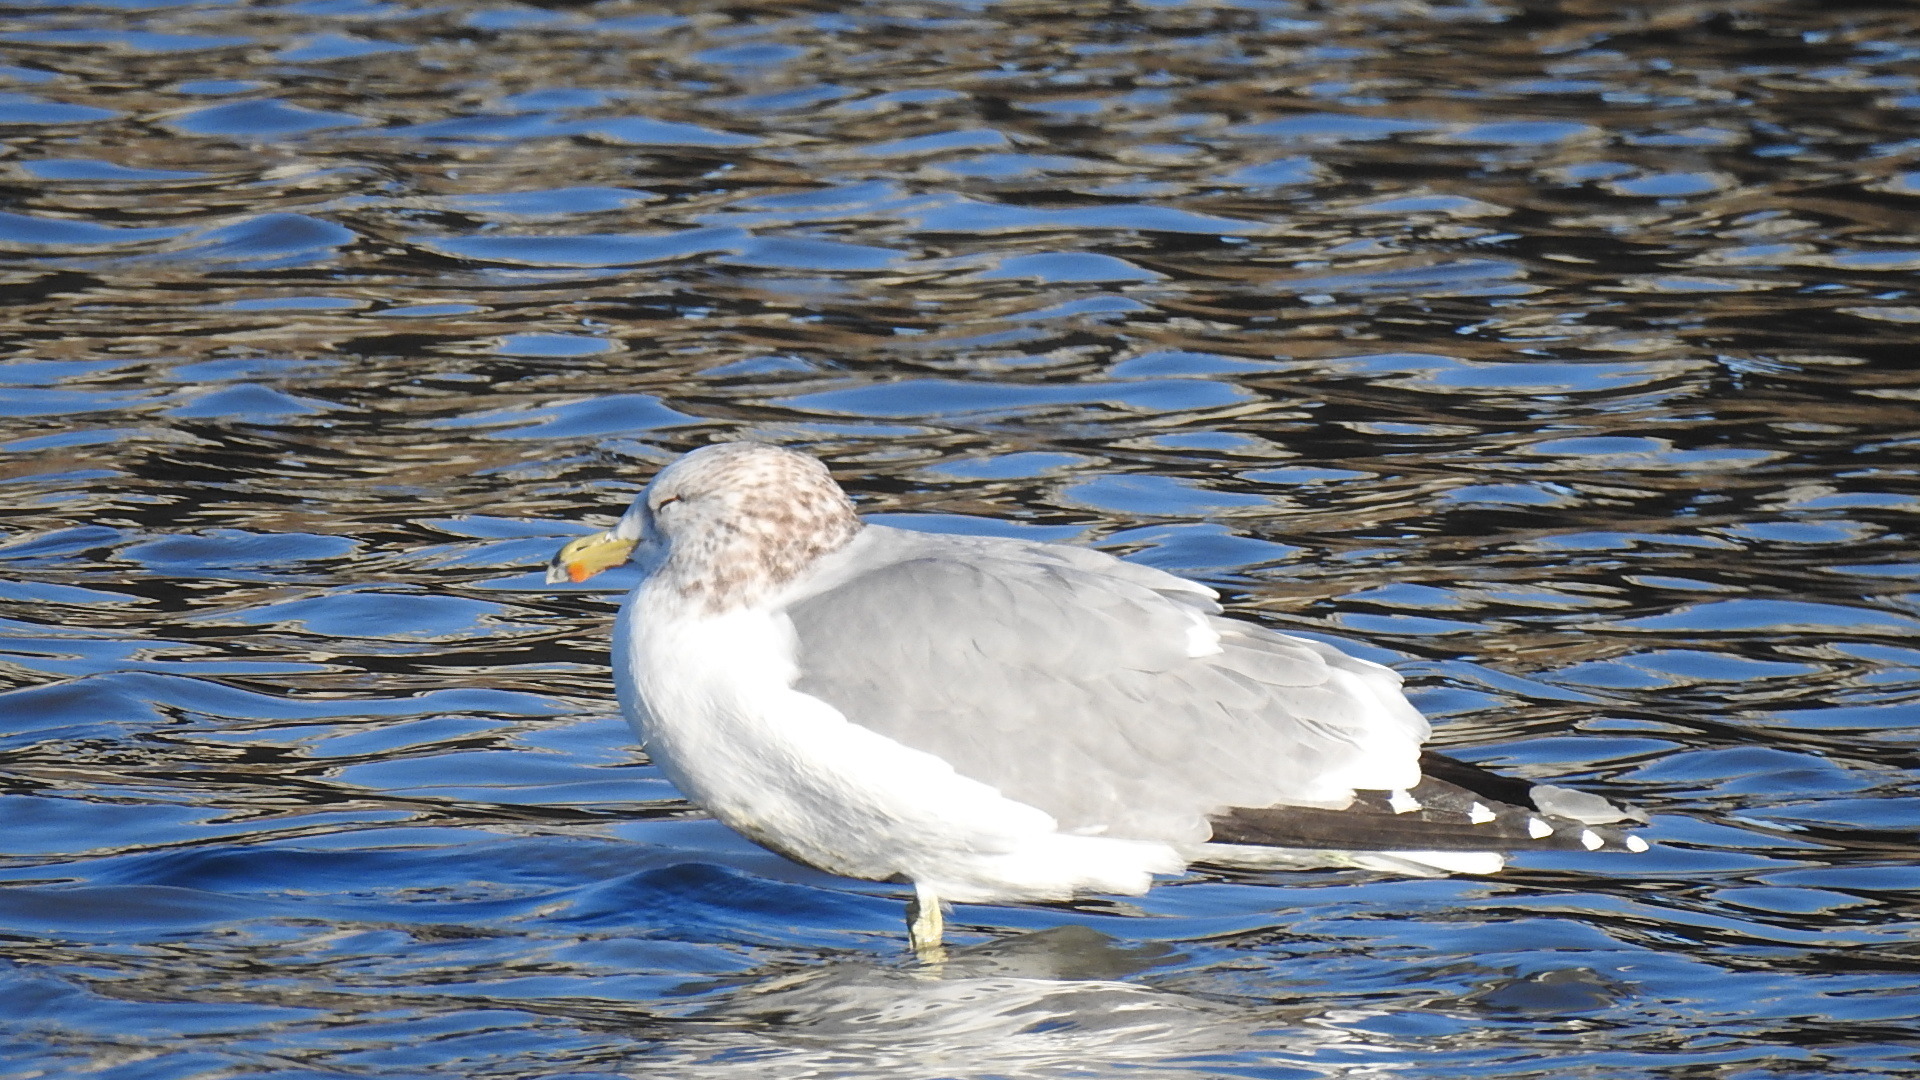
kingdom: Animalia
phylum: Chordata
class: Aves
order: Charadriiformes
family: Laridae
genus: Larus
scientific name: Larus californicus
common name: California gull
